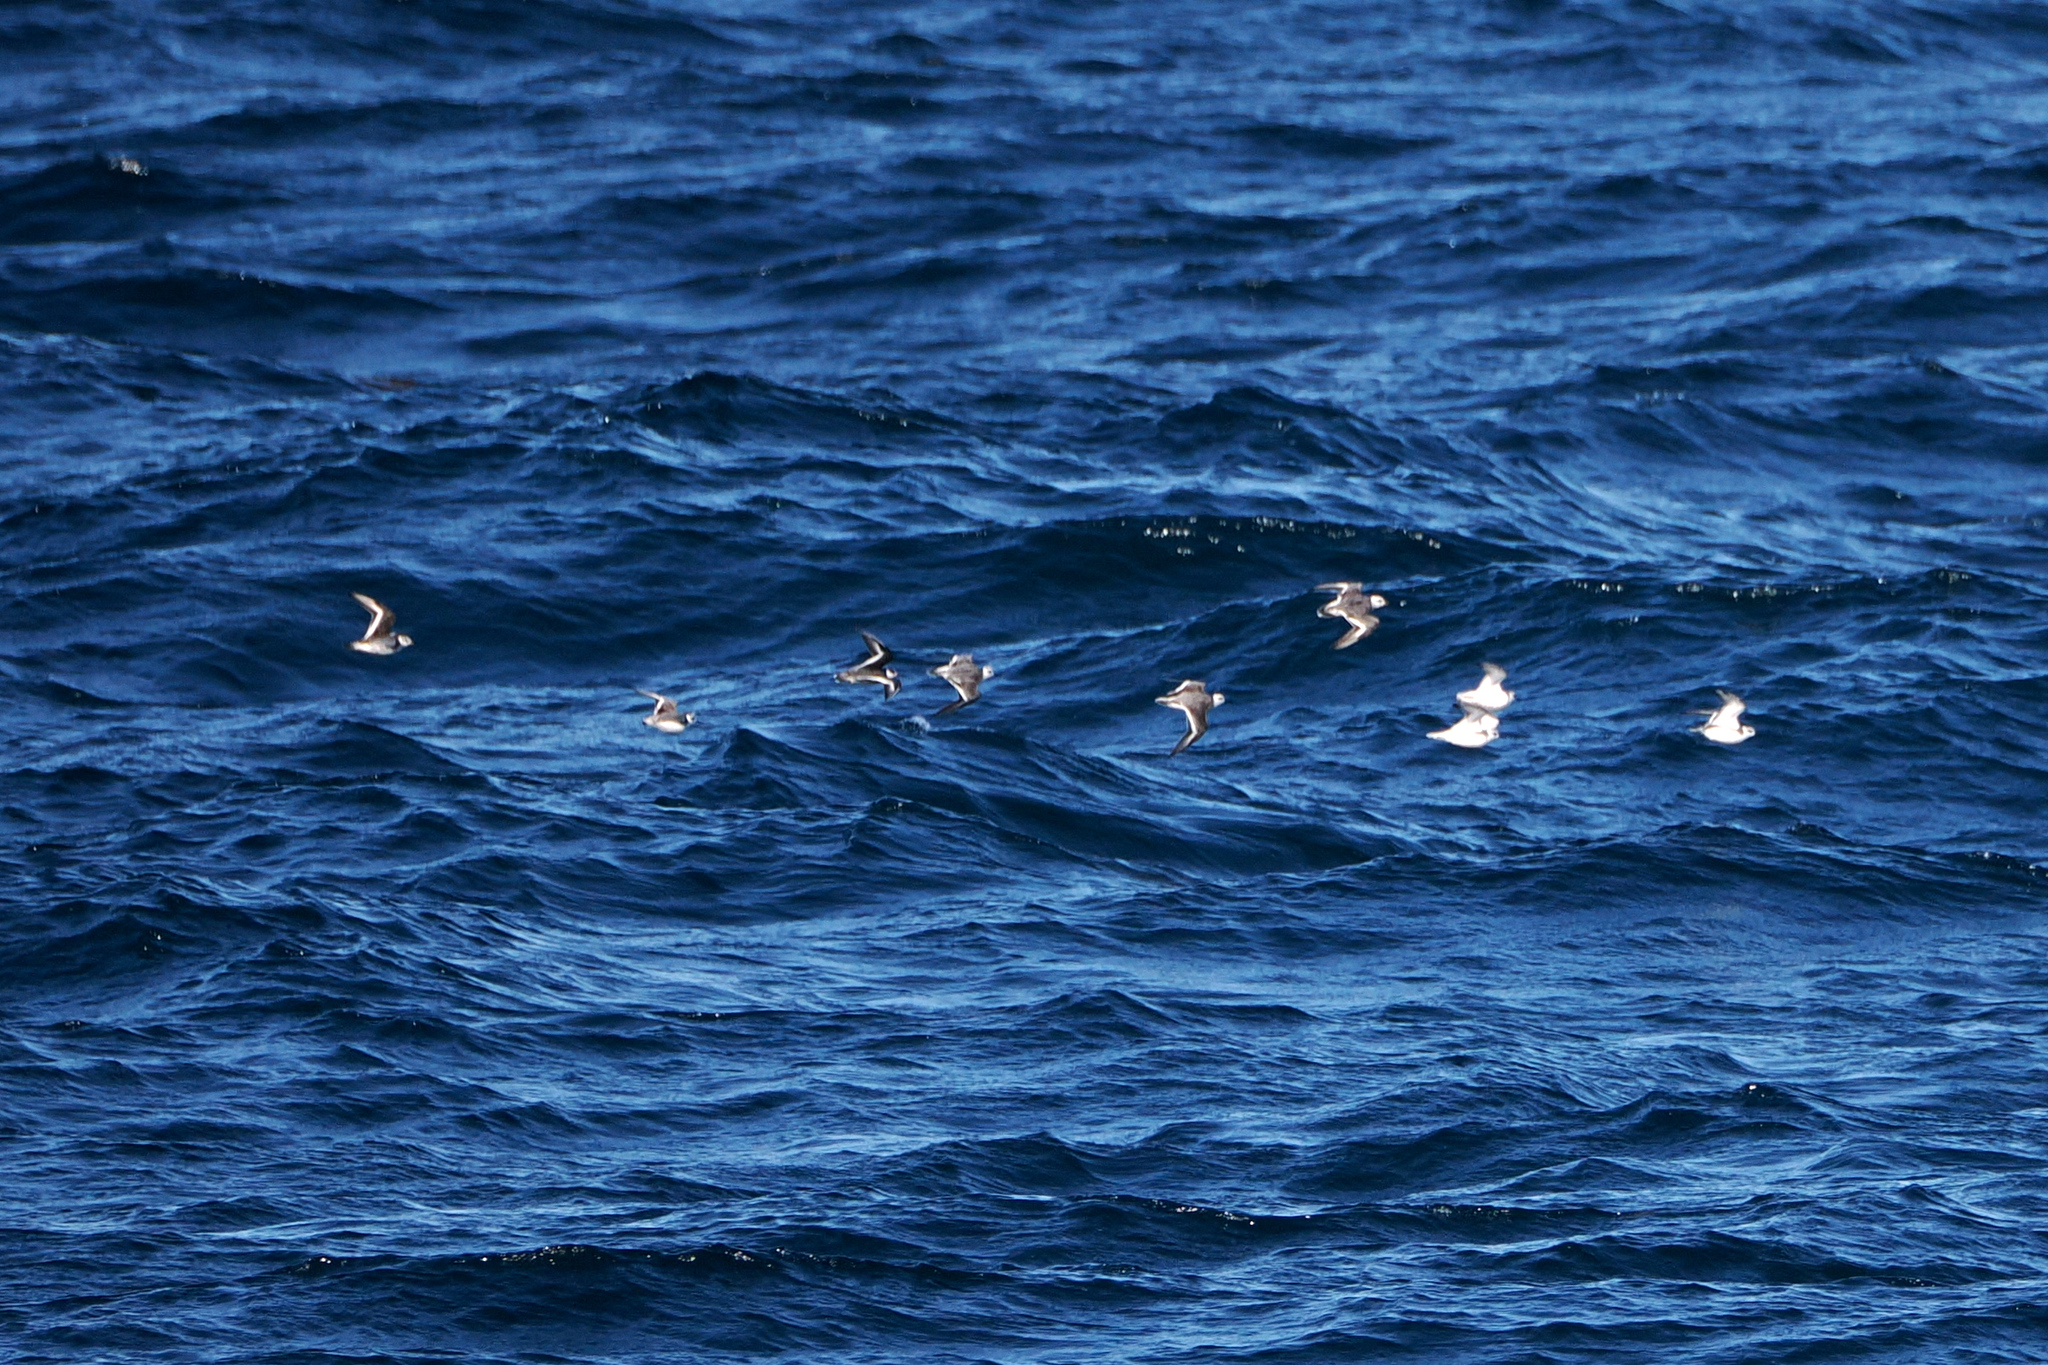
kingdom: Animalia
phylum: Chordata
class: Aves
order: Charadriiformes
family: Scolopacidae
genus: Phalaropus
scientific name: Phalaropus lobatus
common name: Red-necked phalarope
